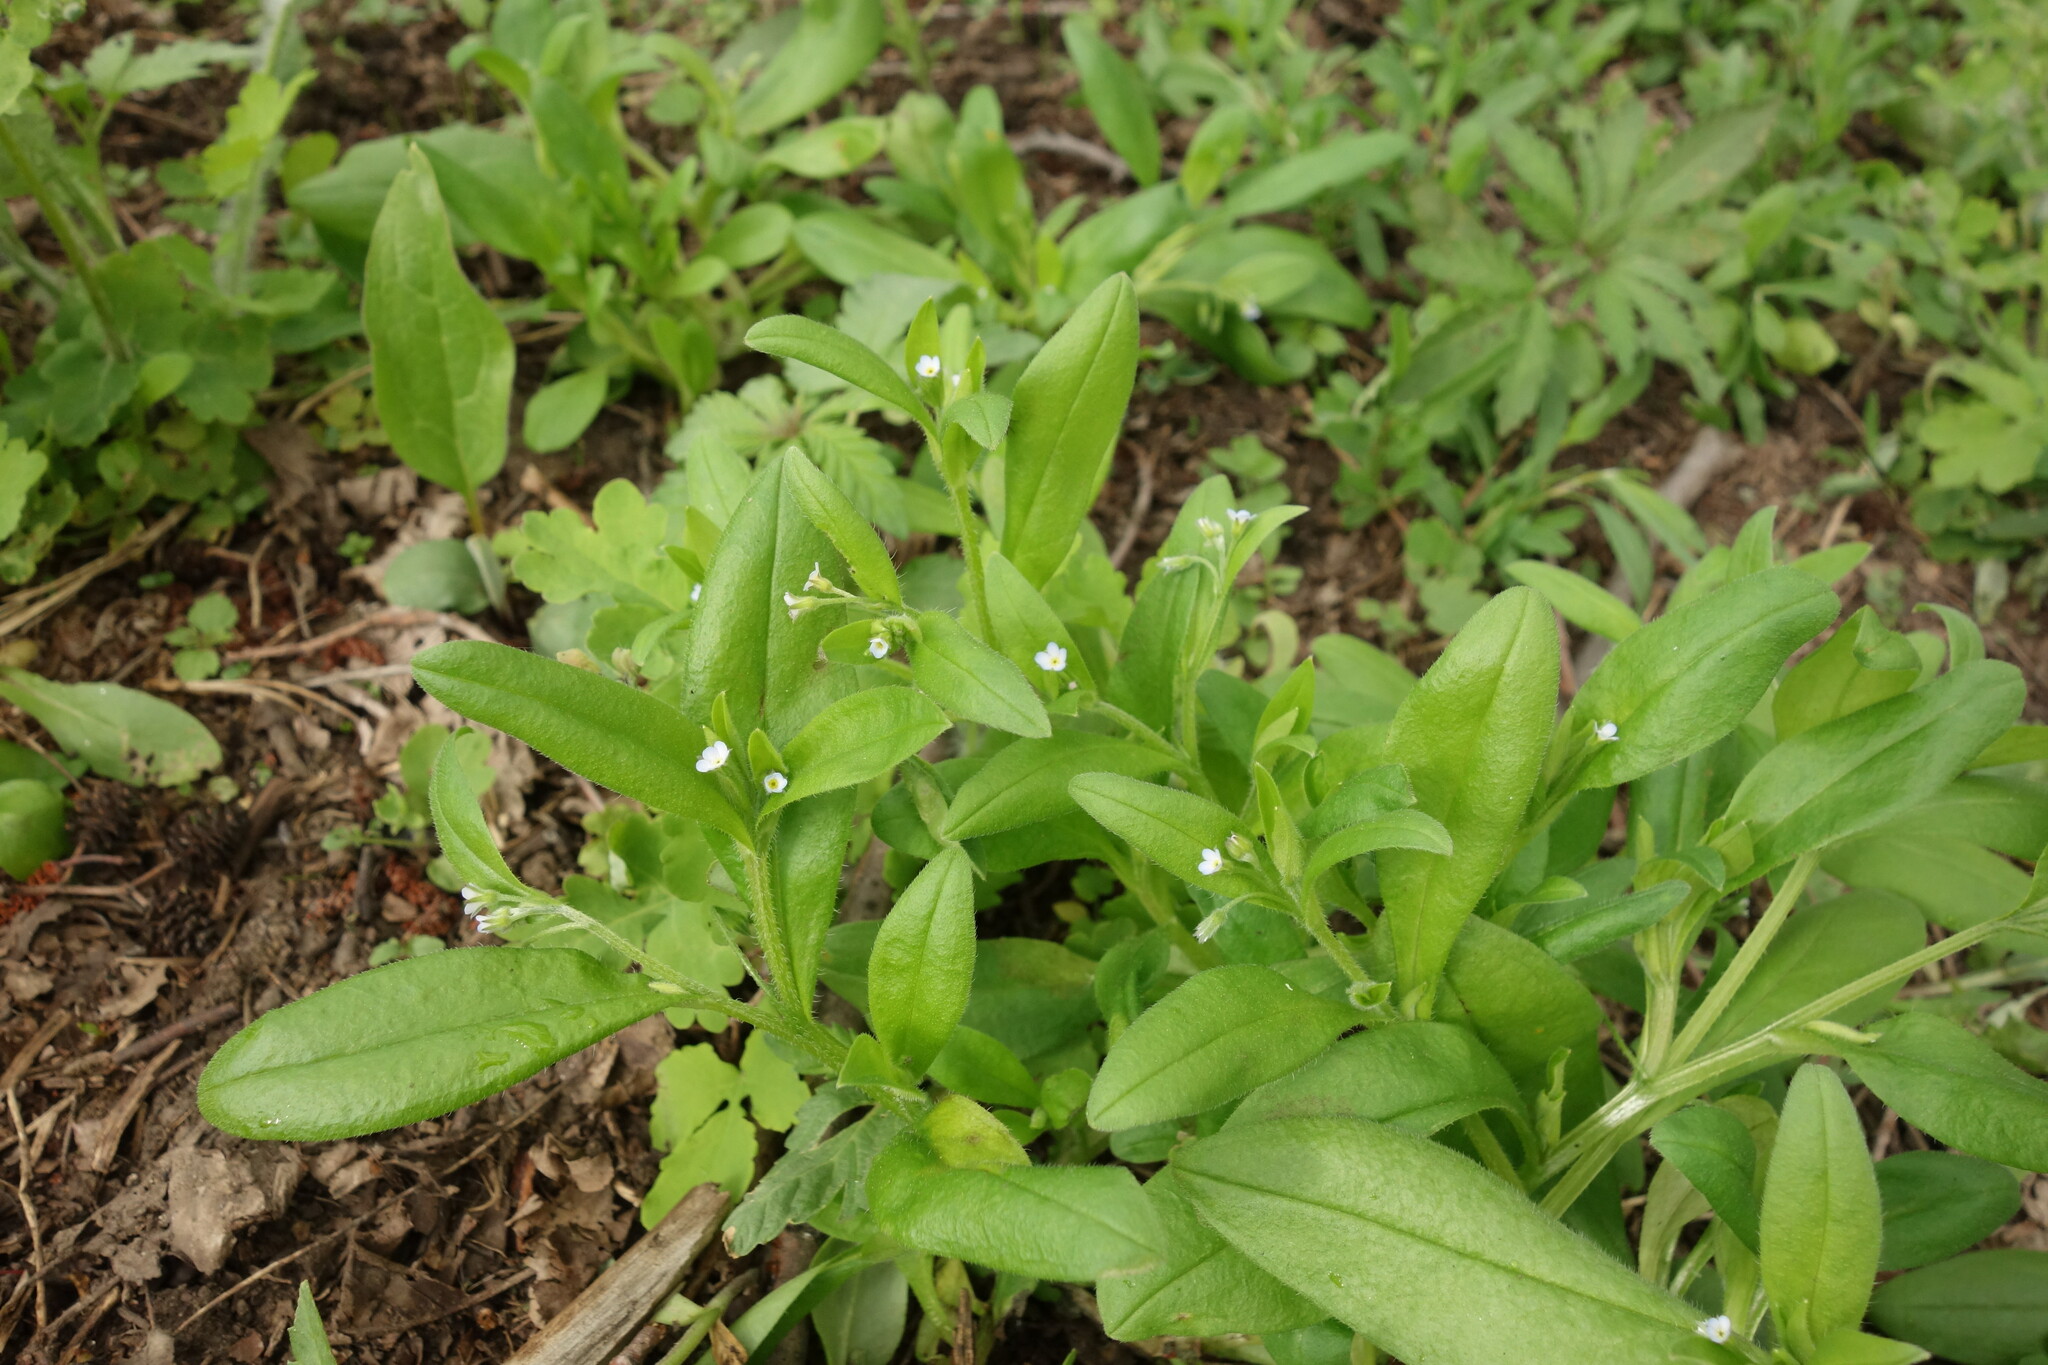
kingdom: Plantae
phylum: Tracheophyta
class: Magnoliopsida
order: Boraginales
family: Boraginaceae
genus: Myosotis
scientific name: Myosotis sparsiflora
